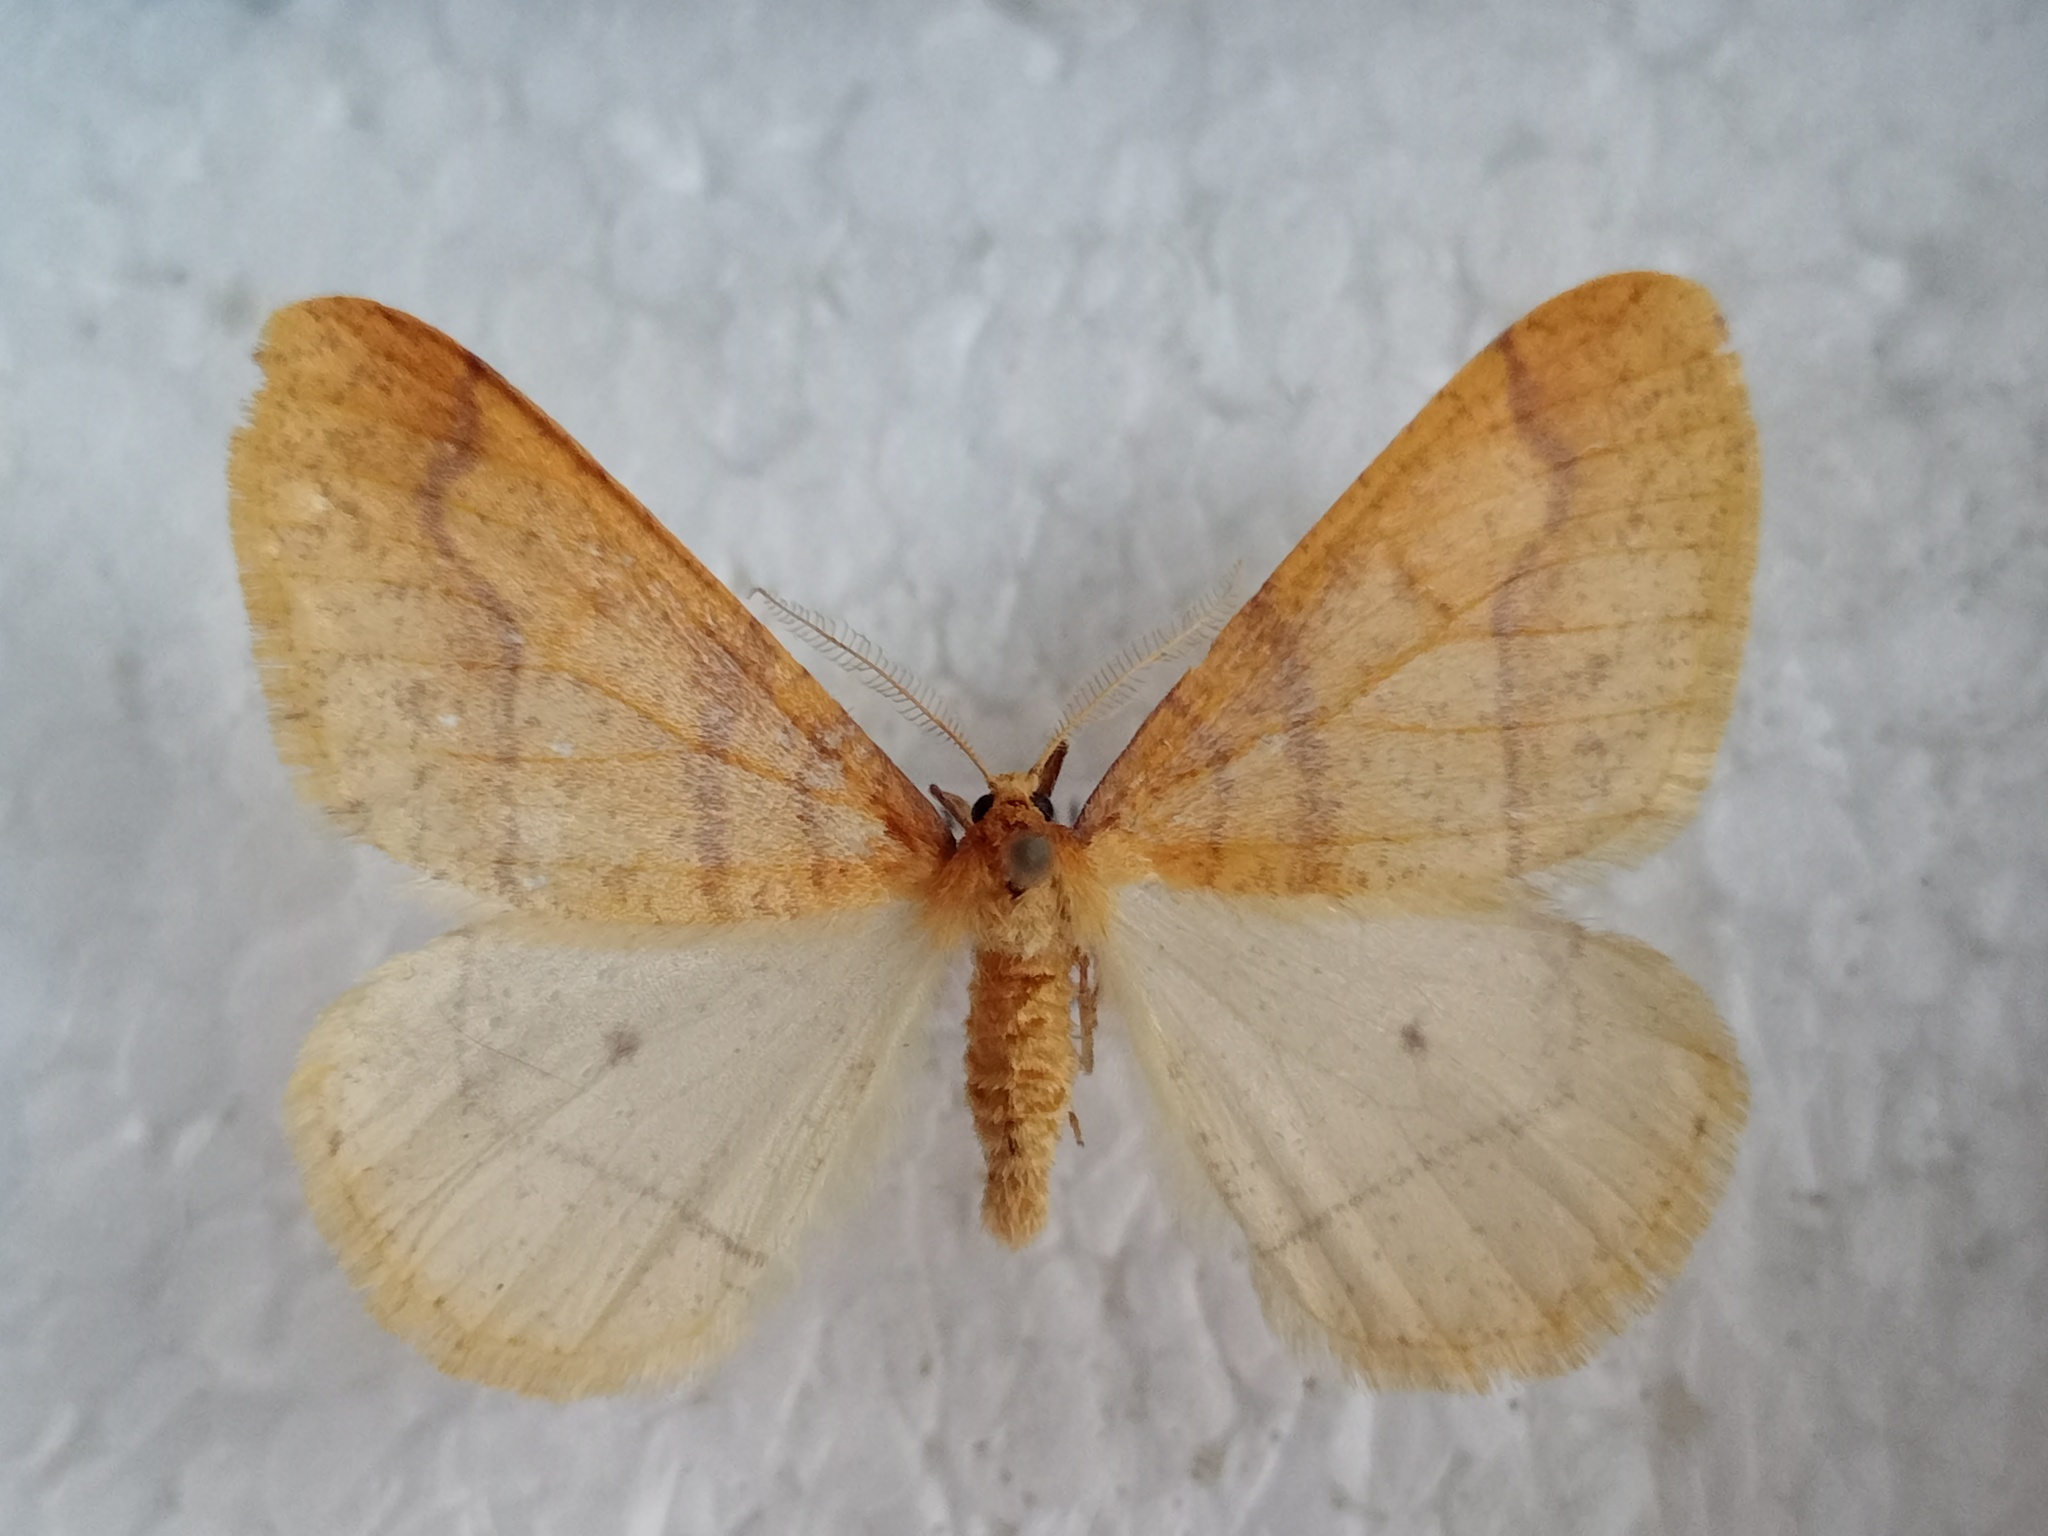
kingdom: Animalia
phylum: Arthropoda
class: Insecta
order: Lepidoptera
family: Geometridae
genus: Agriopis
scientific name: Agriopis aurantiaria
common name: Scarce umber
